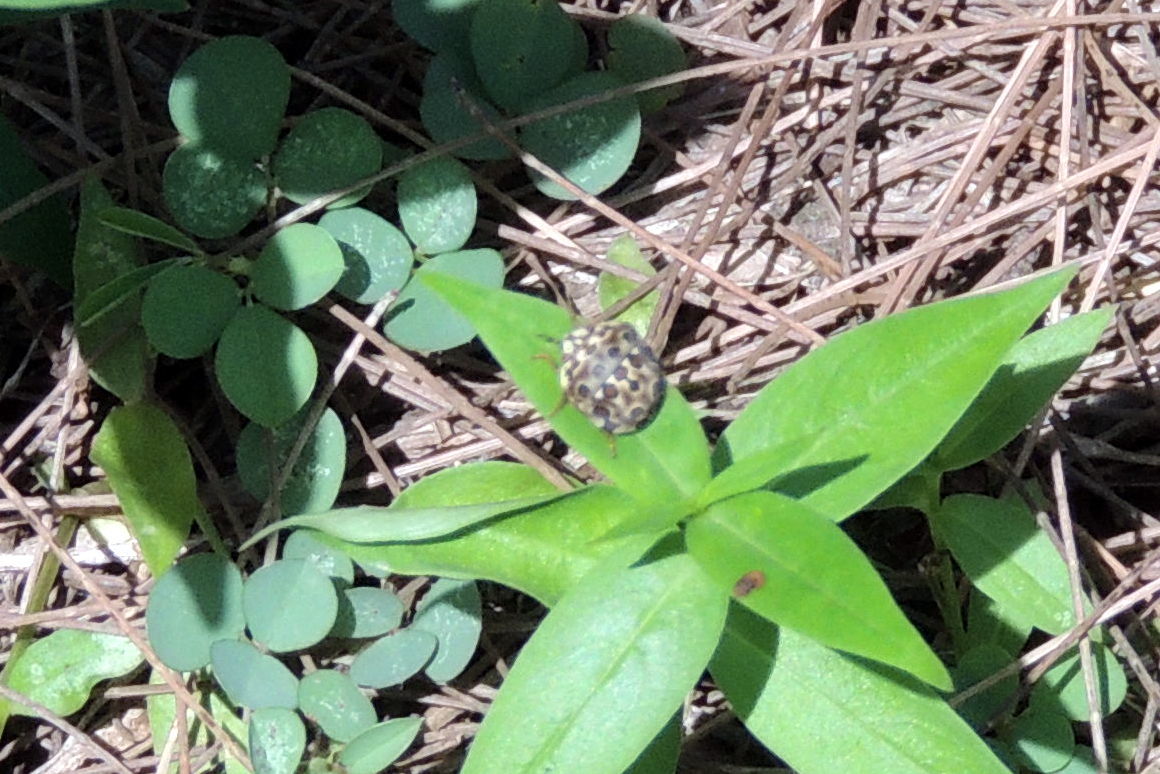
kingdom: Animalia
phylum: Arthropoda
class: Insecta
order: Hemiptera
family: Scutelleridae
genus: Sphaerocoris
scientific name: Sphaerocoris
